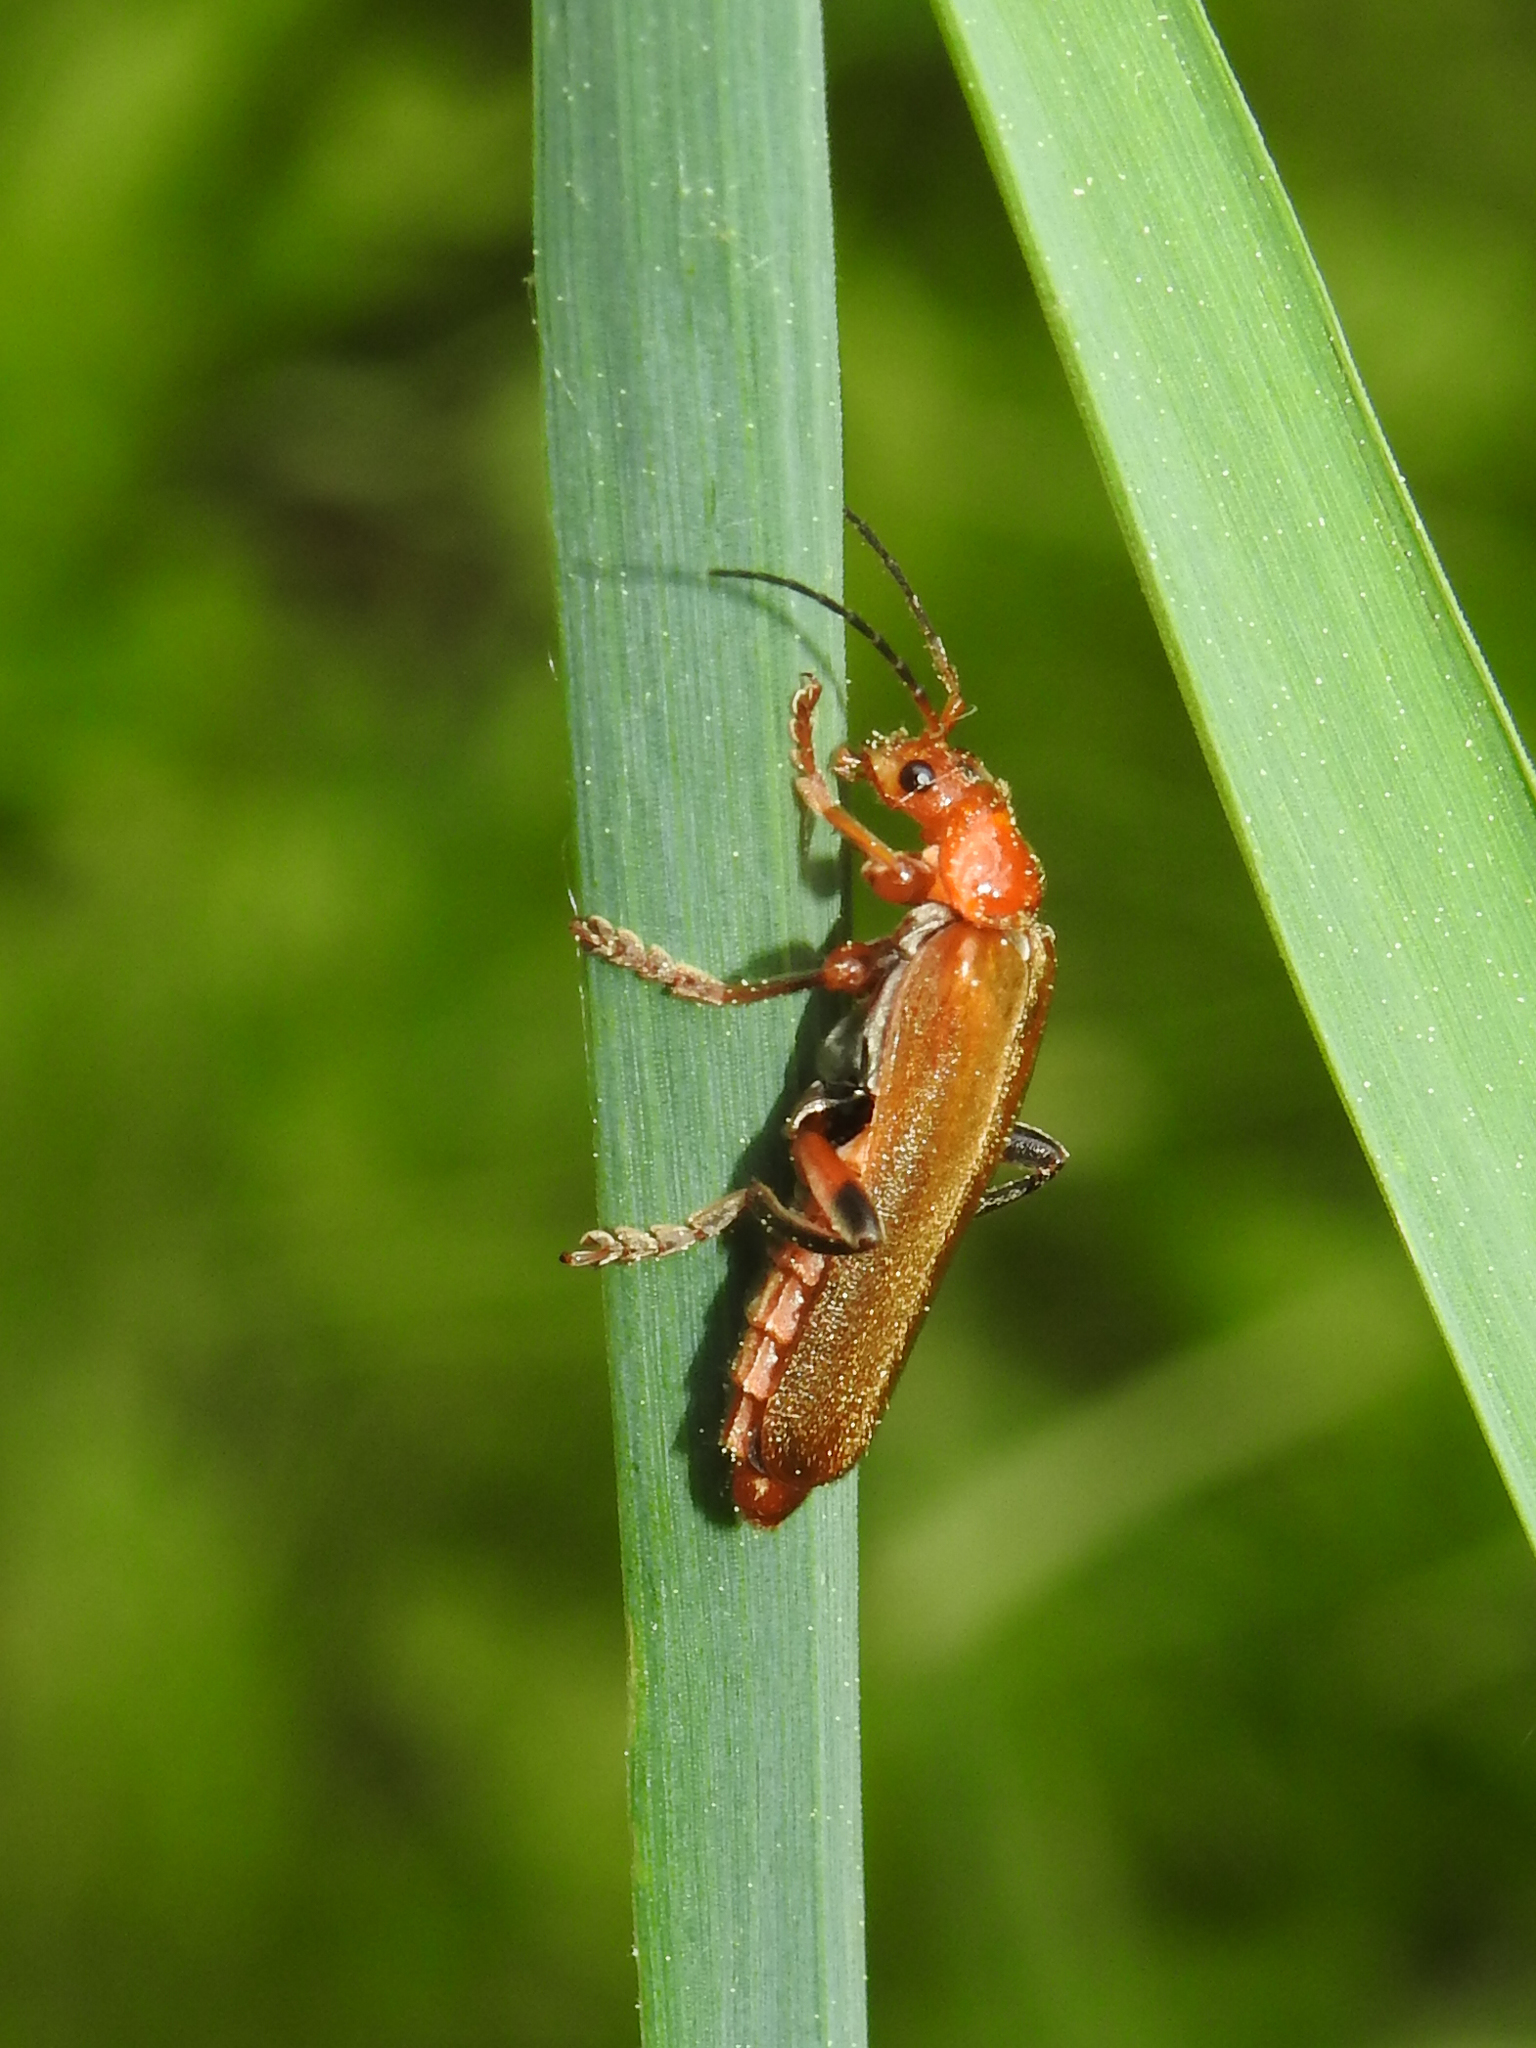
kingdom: Animalia
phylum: Arthropoda
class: Insecta
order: Coleoptera
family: Cantharidae
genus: Cantharis
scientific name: Cantharis livida
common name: Livid soldier beetle
